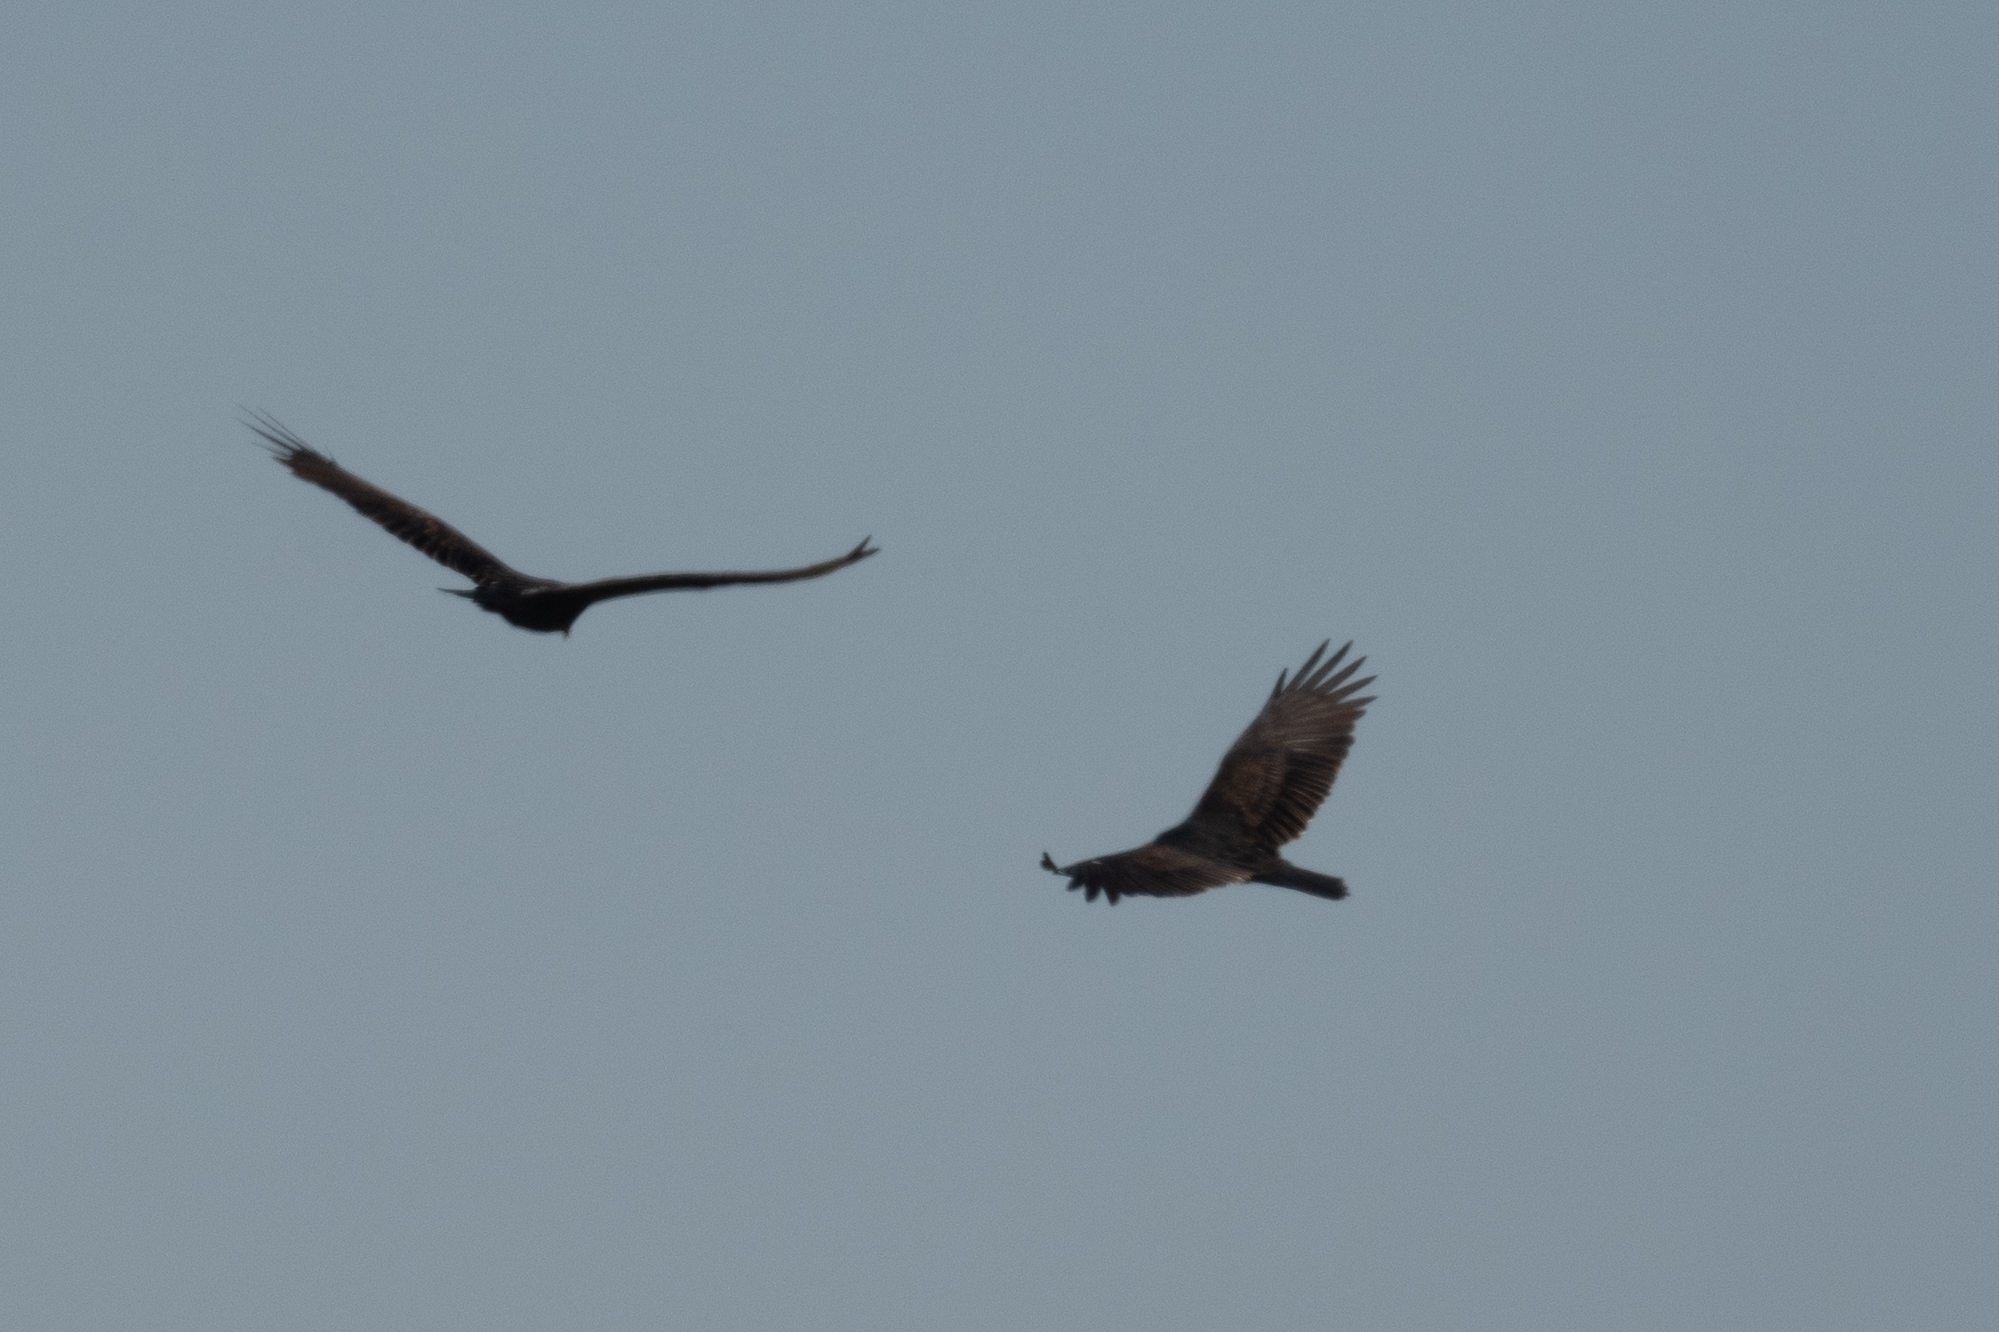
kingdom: Animalia
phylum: Chordata
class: Aves
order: Accipitriformes
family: Cathartidae
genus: Cathartes
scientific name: Cathartes aura
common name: Turkey vulture
